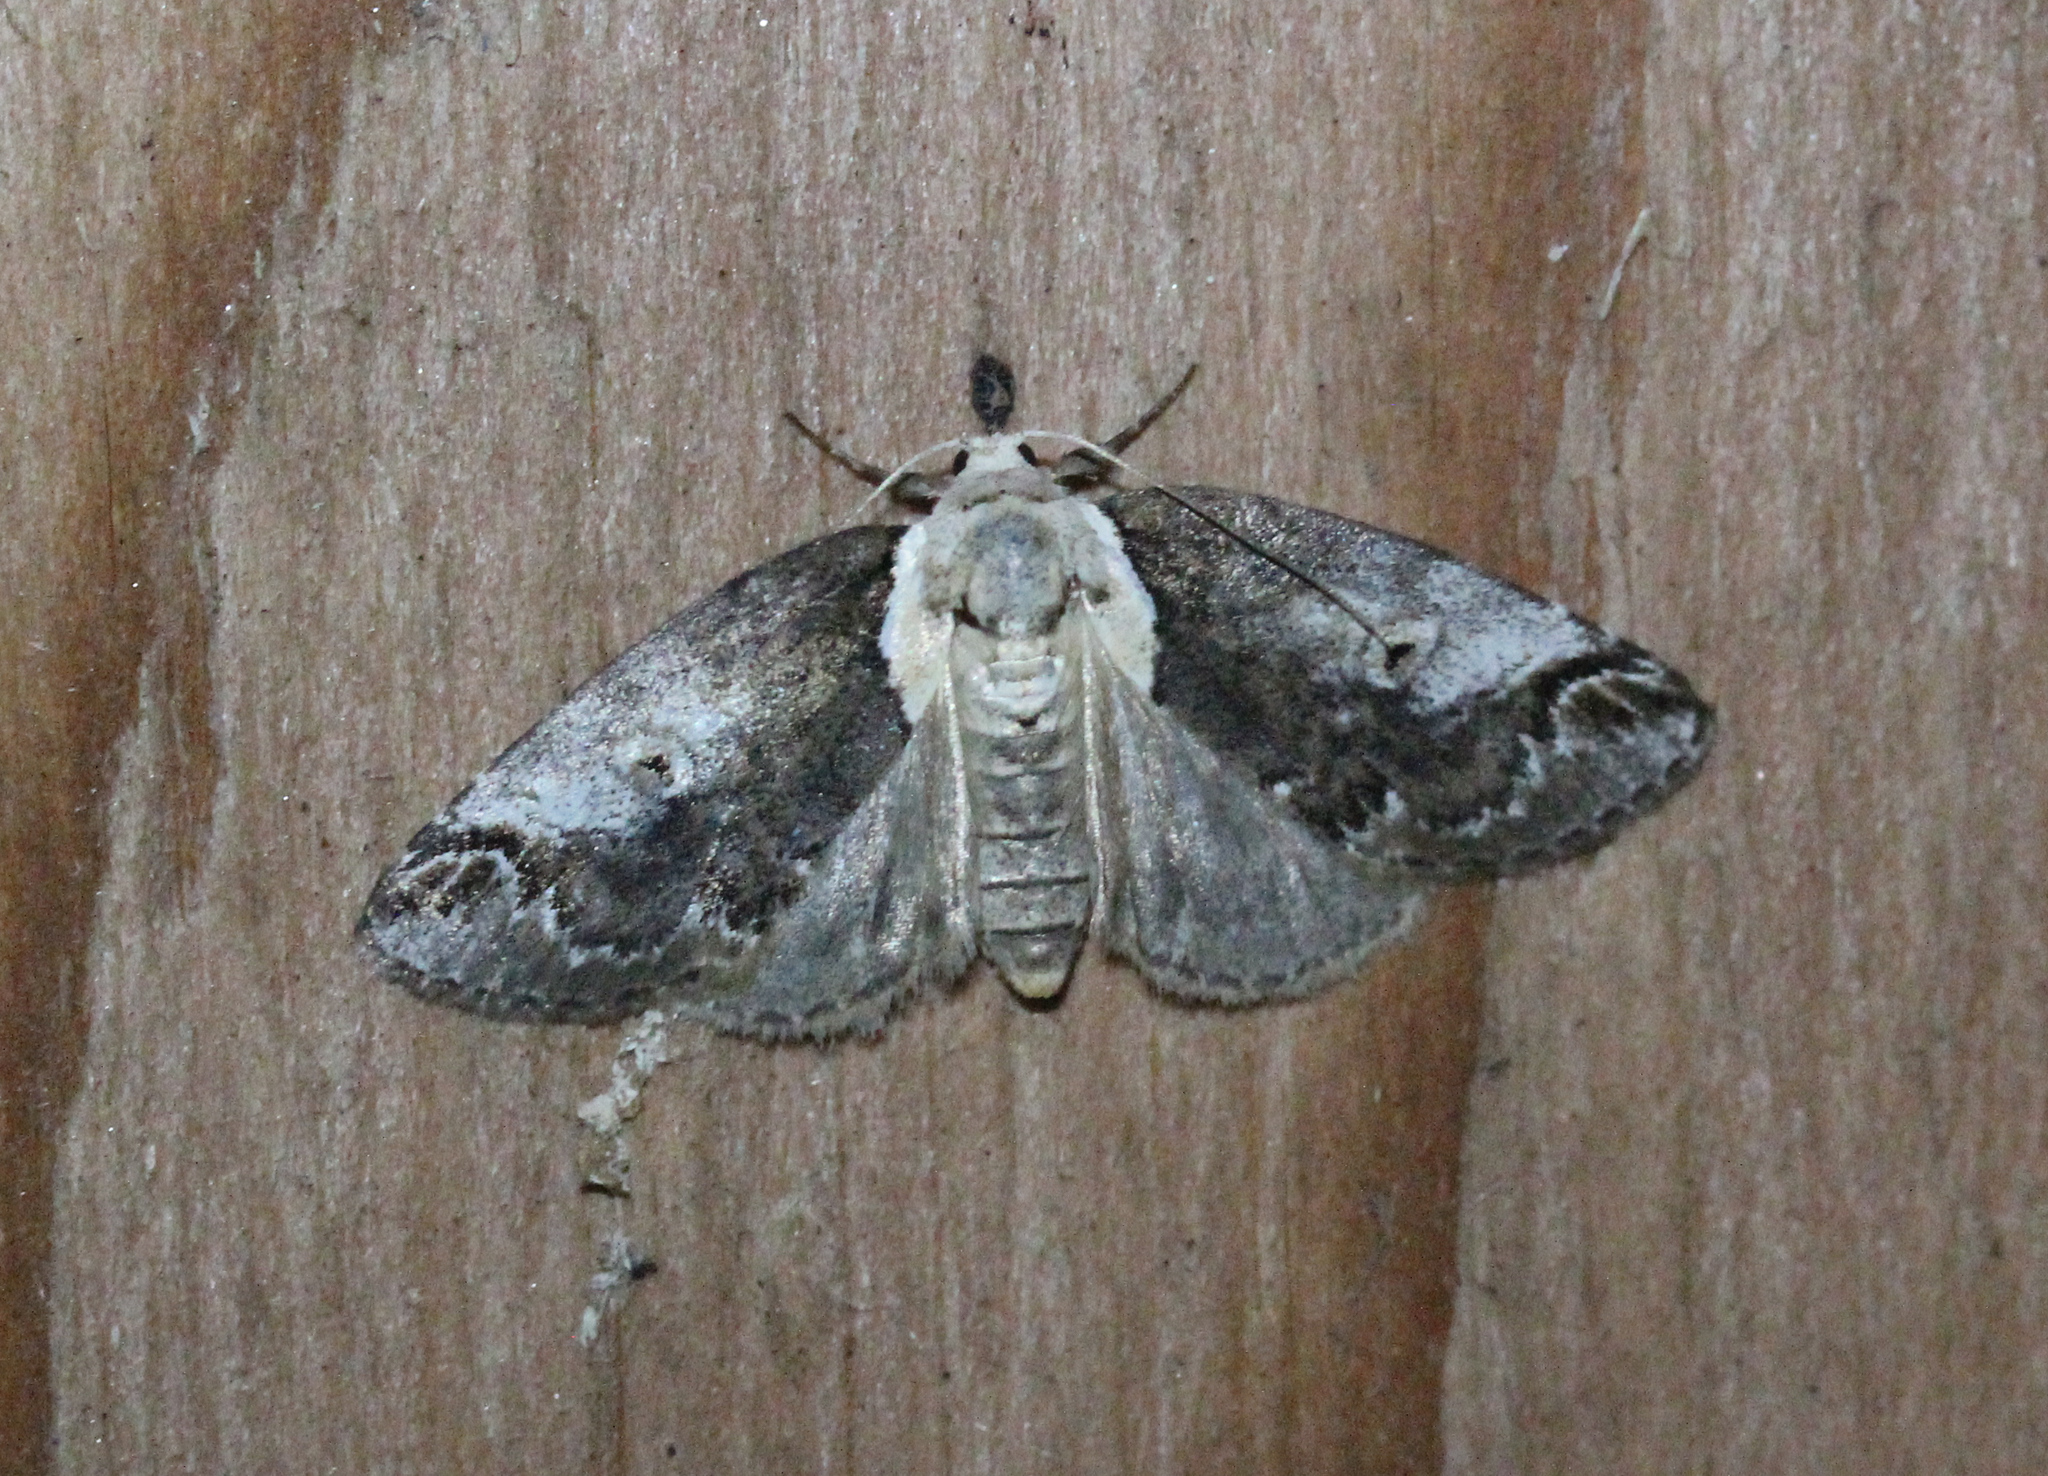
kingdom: Animalia
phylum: Arthropoda
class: Insecta
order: Lepidoptera
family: Nolidae
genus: Baileya
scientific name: Baileya ophthalmica
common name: Eyed baileya moth
